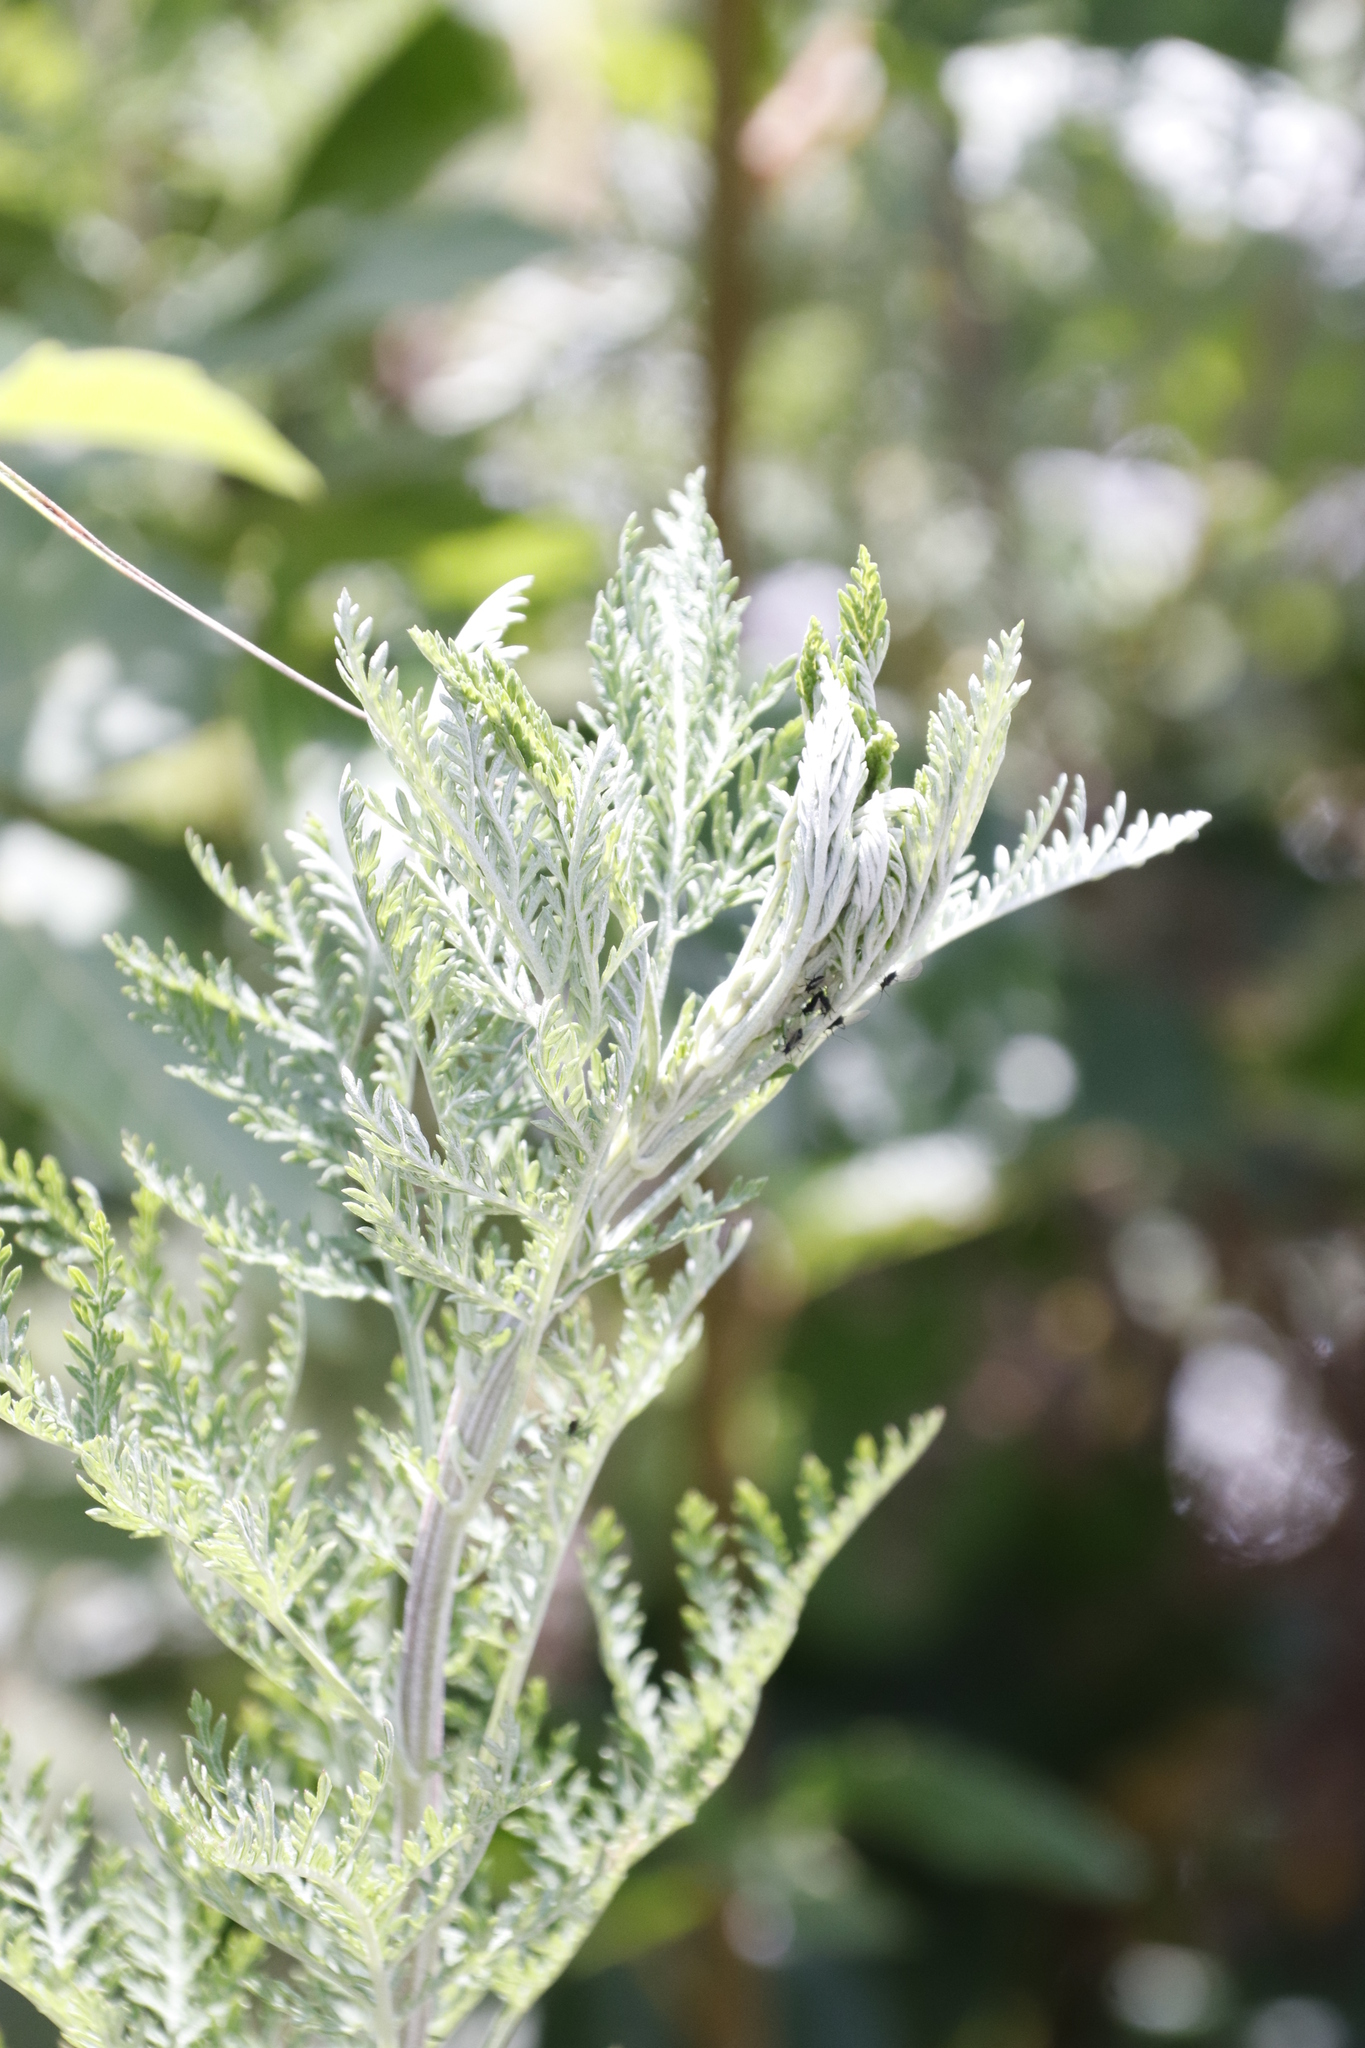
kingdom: Plantae
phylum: Tracheophyta
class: Magnoliopsida
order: Asterales
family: Asteraceae
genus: Artemisia
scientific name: Artemisia afra
